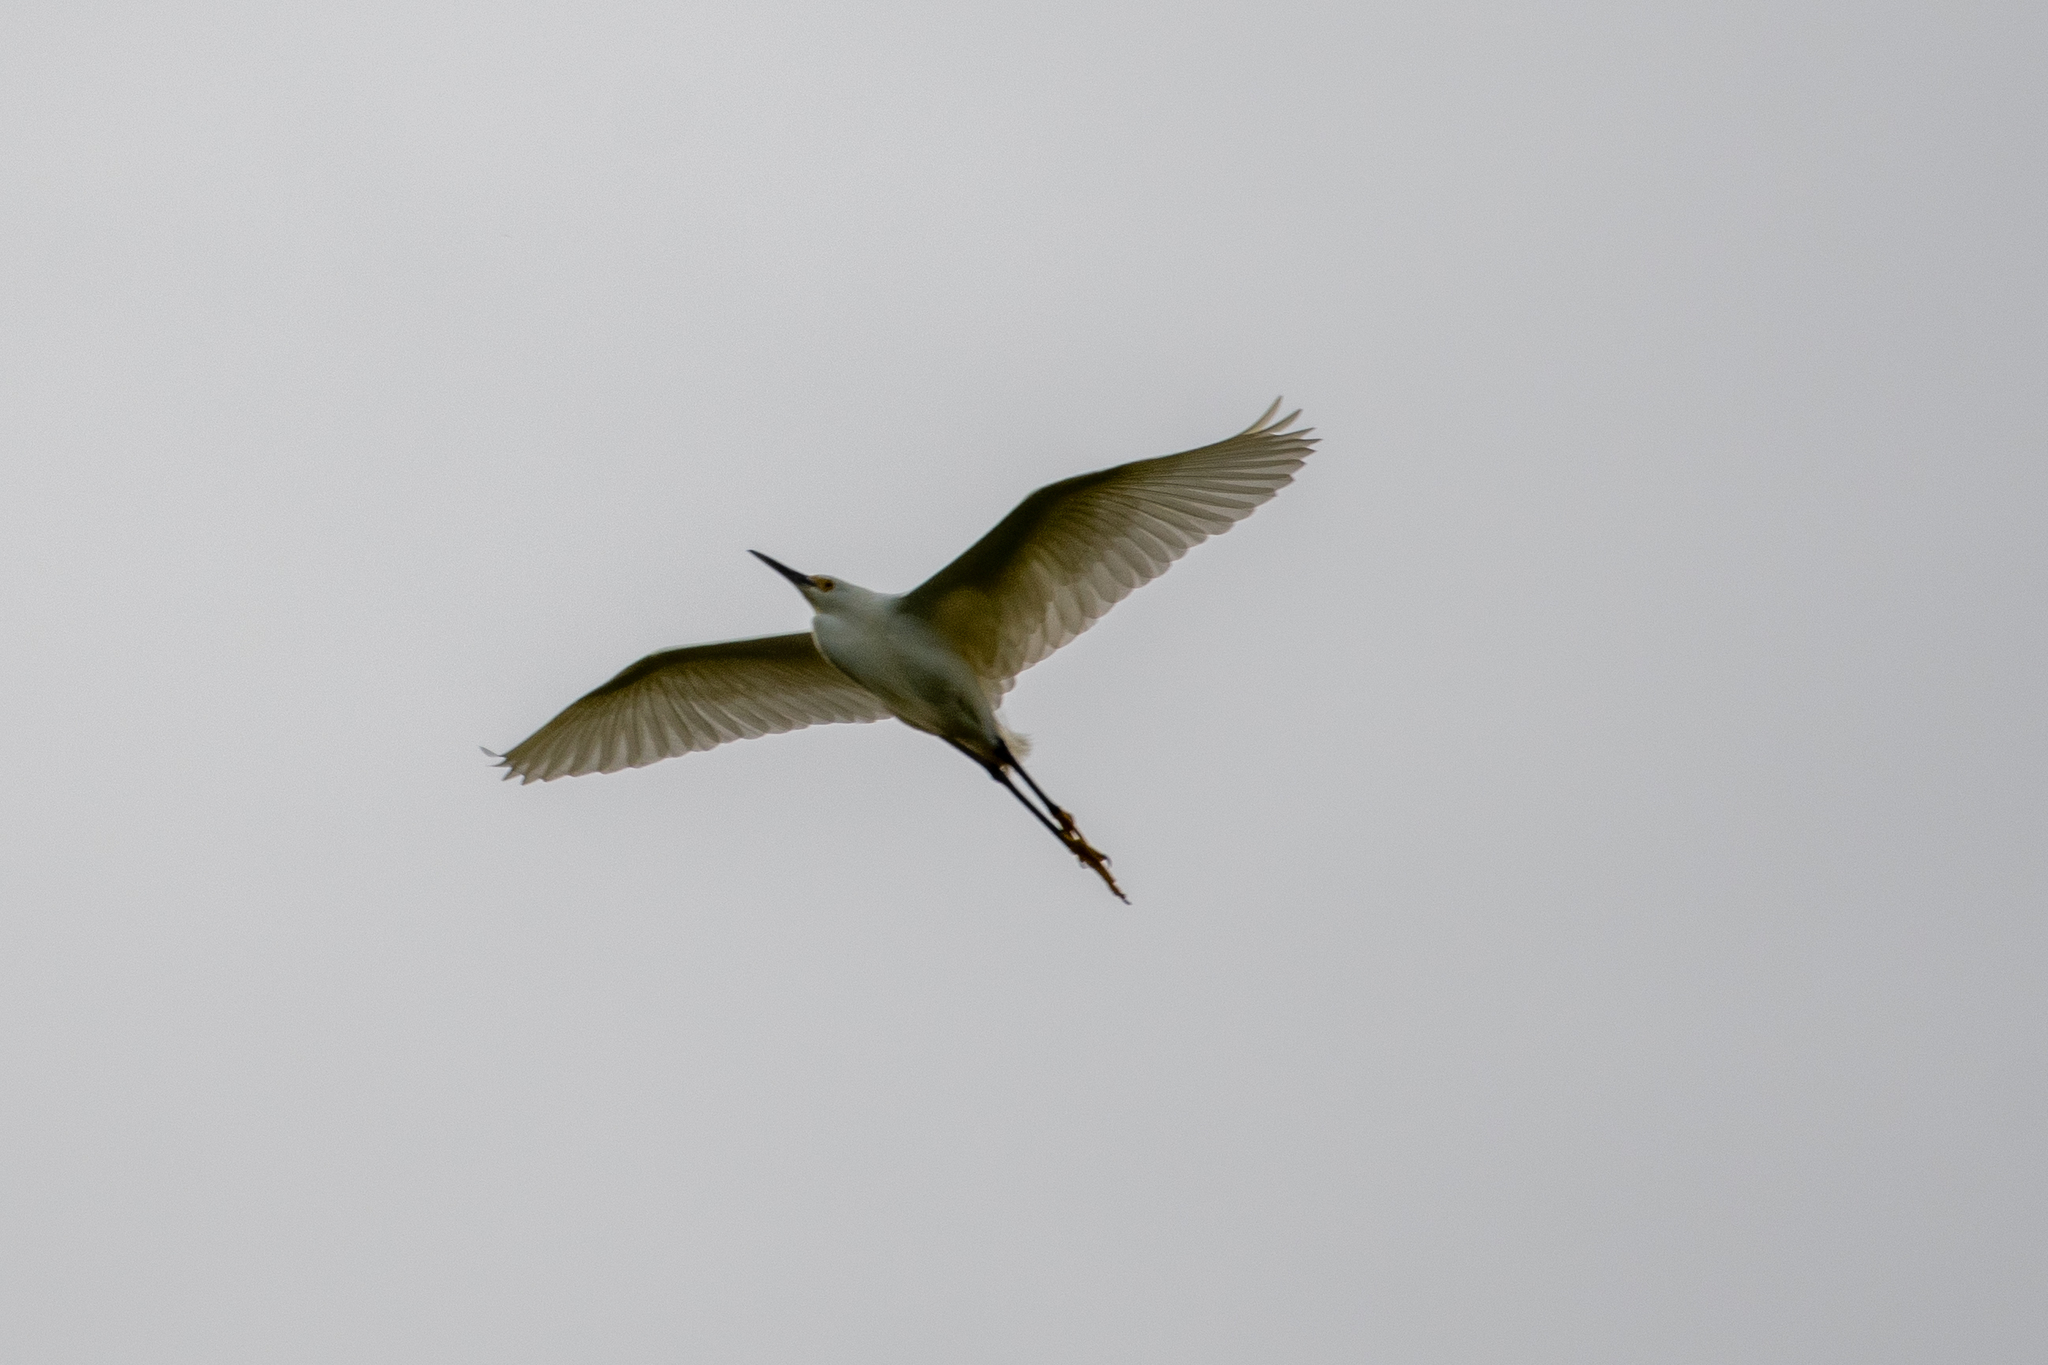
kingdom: Animalia
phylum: Chordata
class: Aves
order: Pelecaniformes
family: Ardeidae
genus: Egretta
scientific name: Egretta thula
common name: Snowy egret
